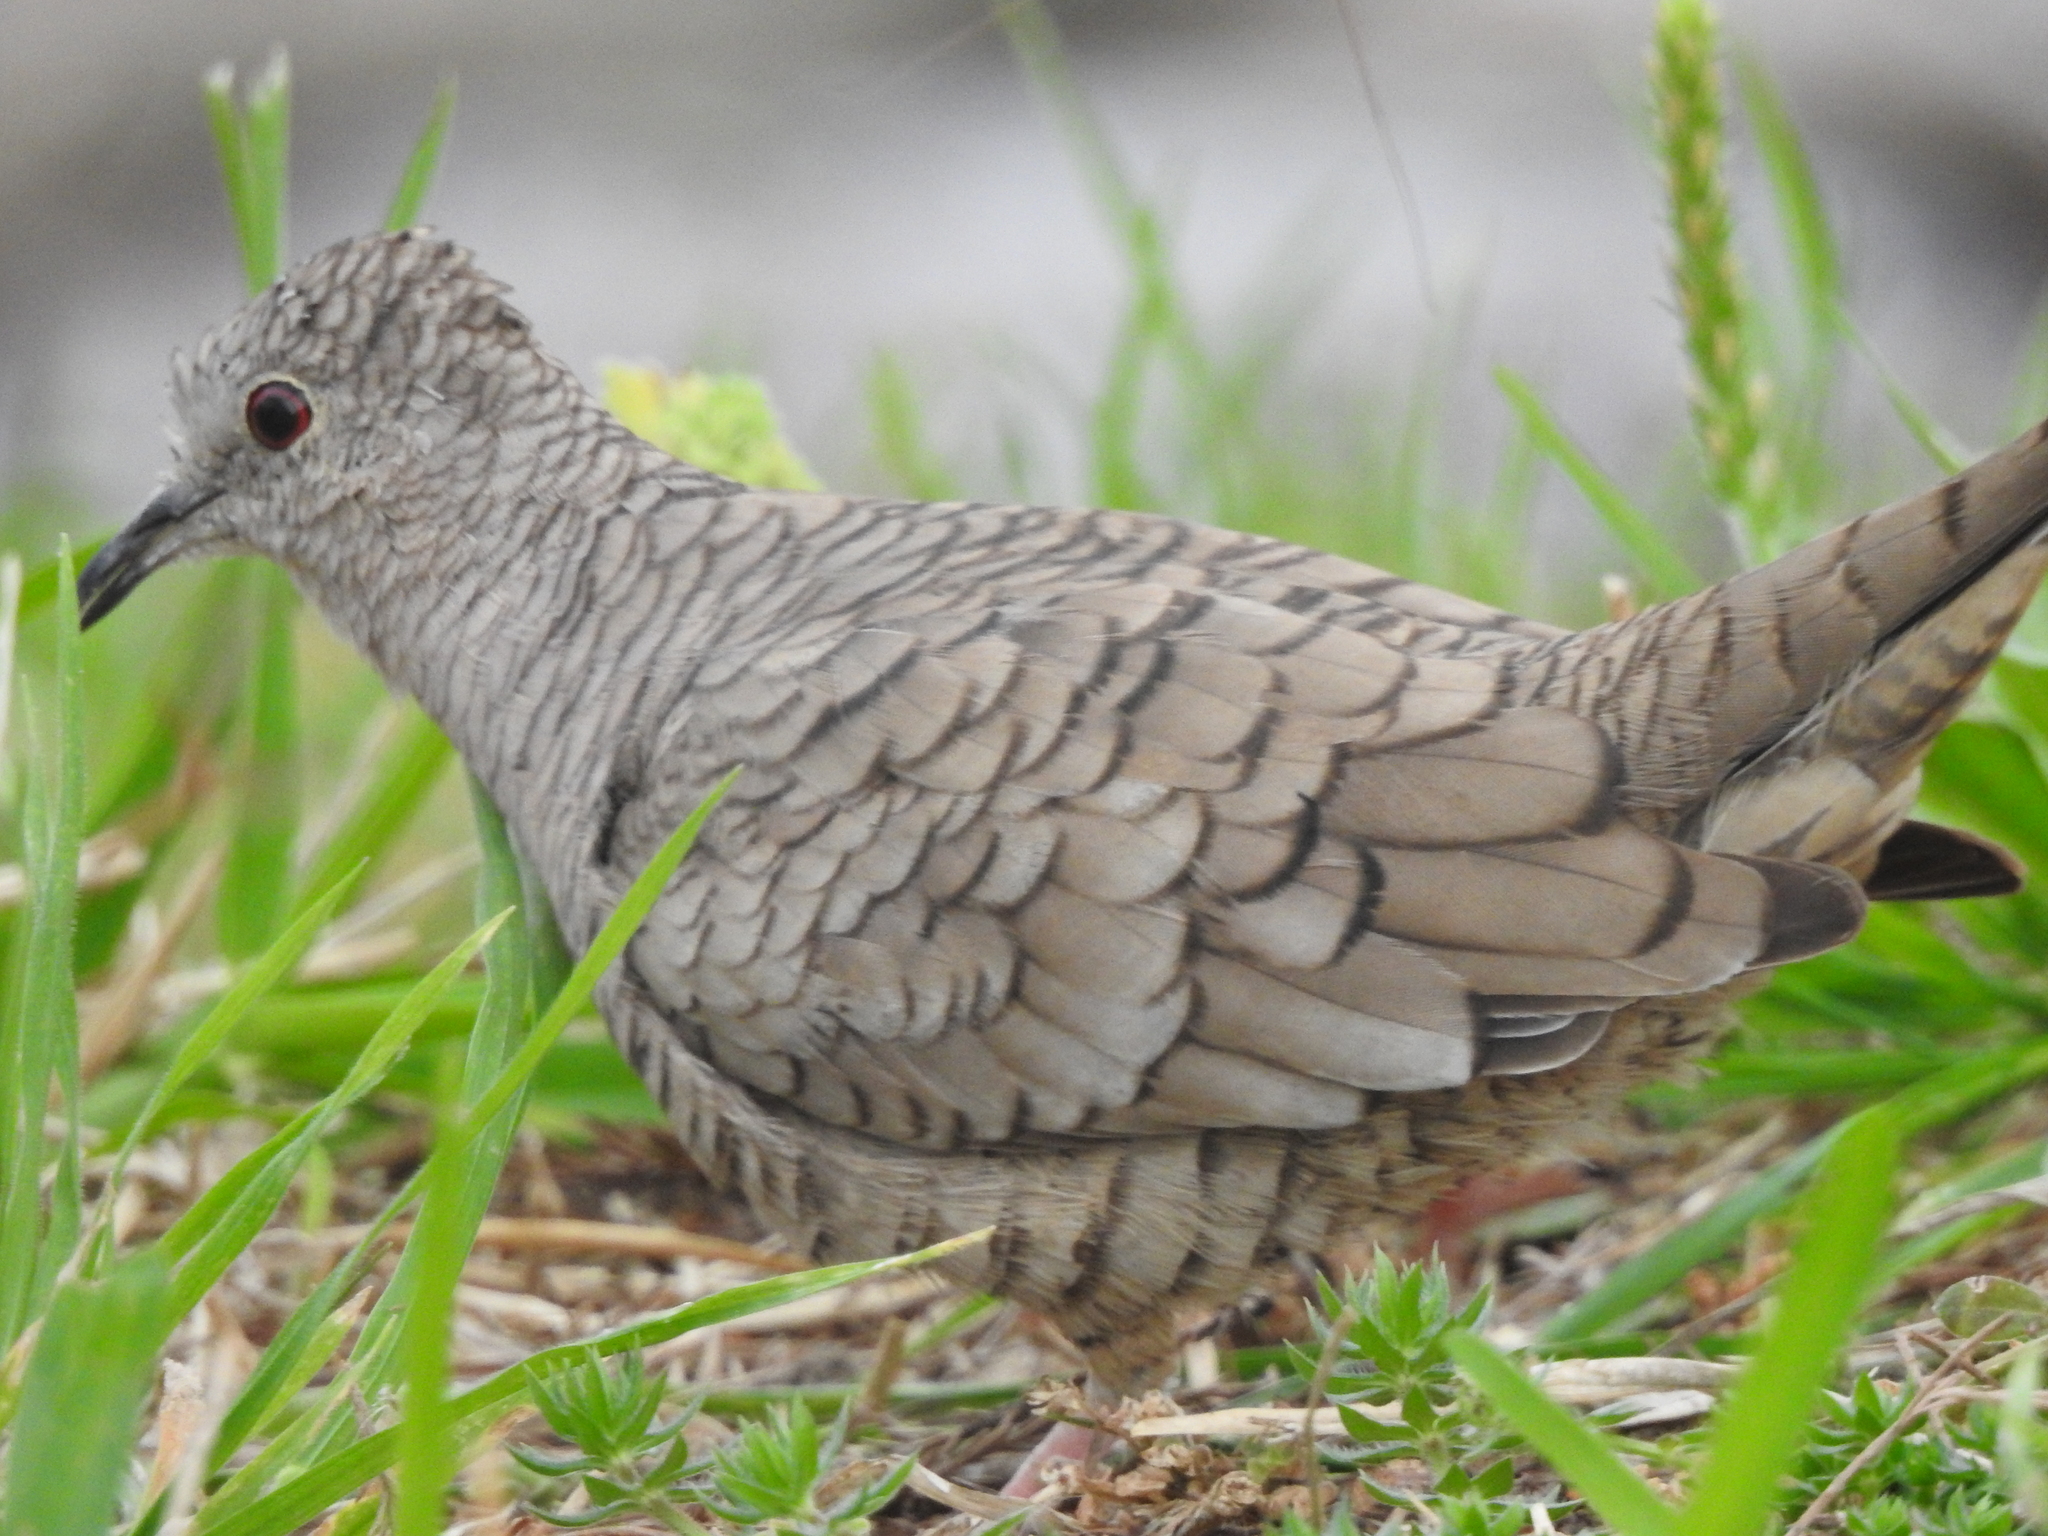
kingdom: Animalia
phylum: Chordata
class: Aves
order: Columbiformes
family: Columbidae
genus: Columbina
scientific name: Columbina inca
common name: Inca dove
